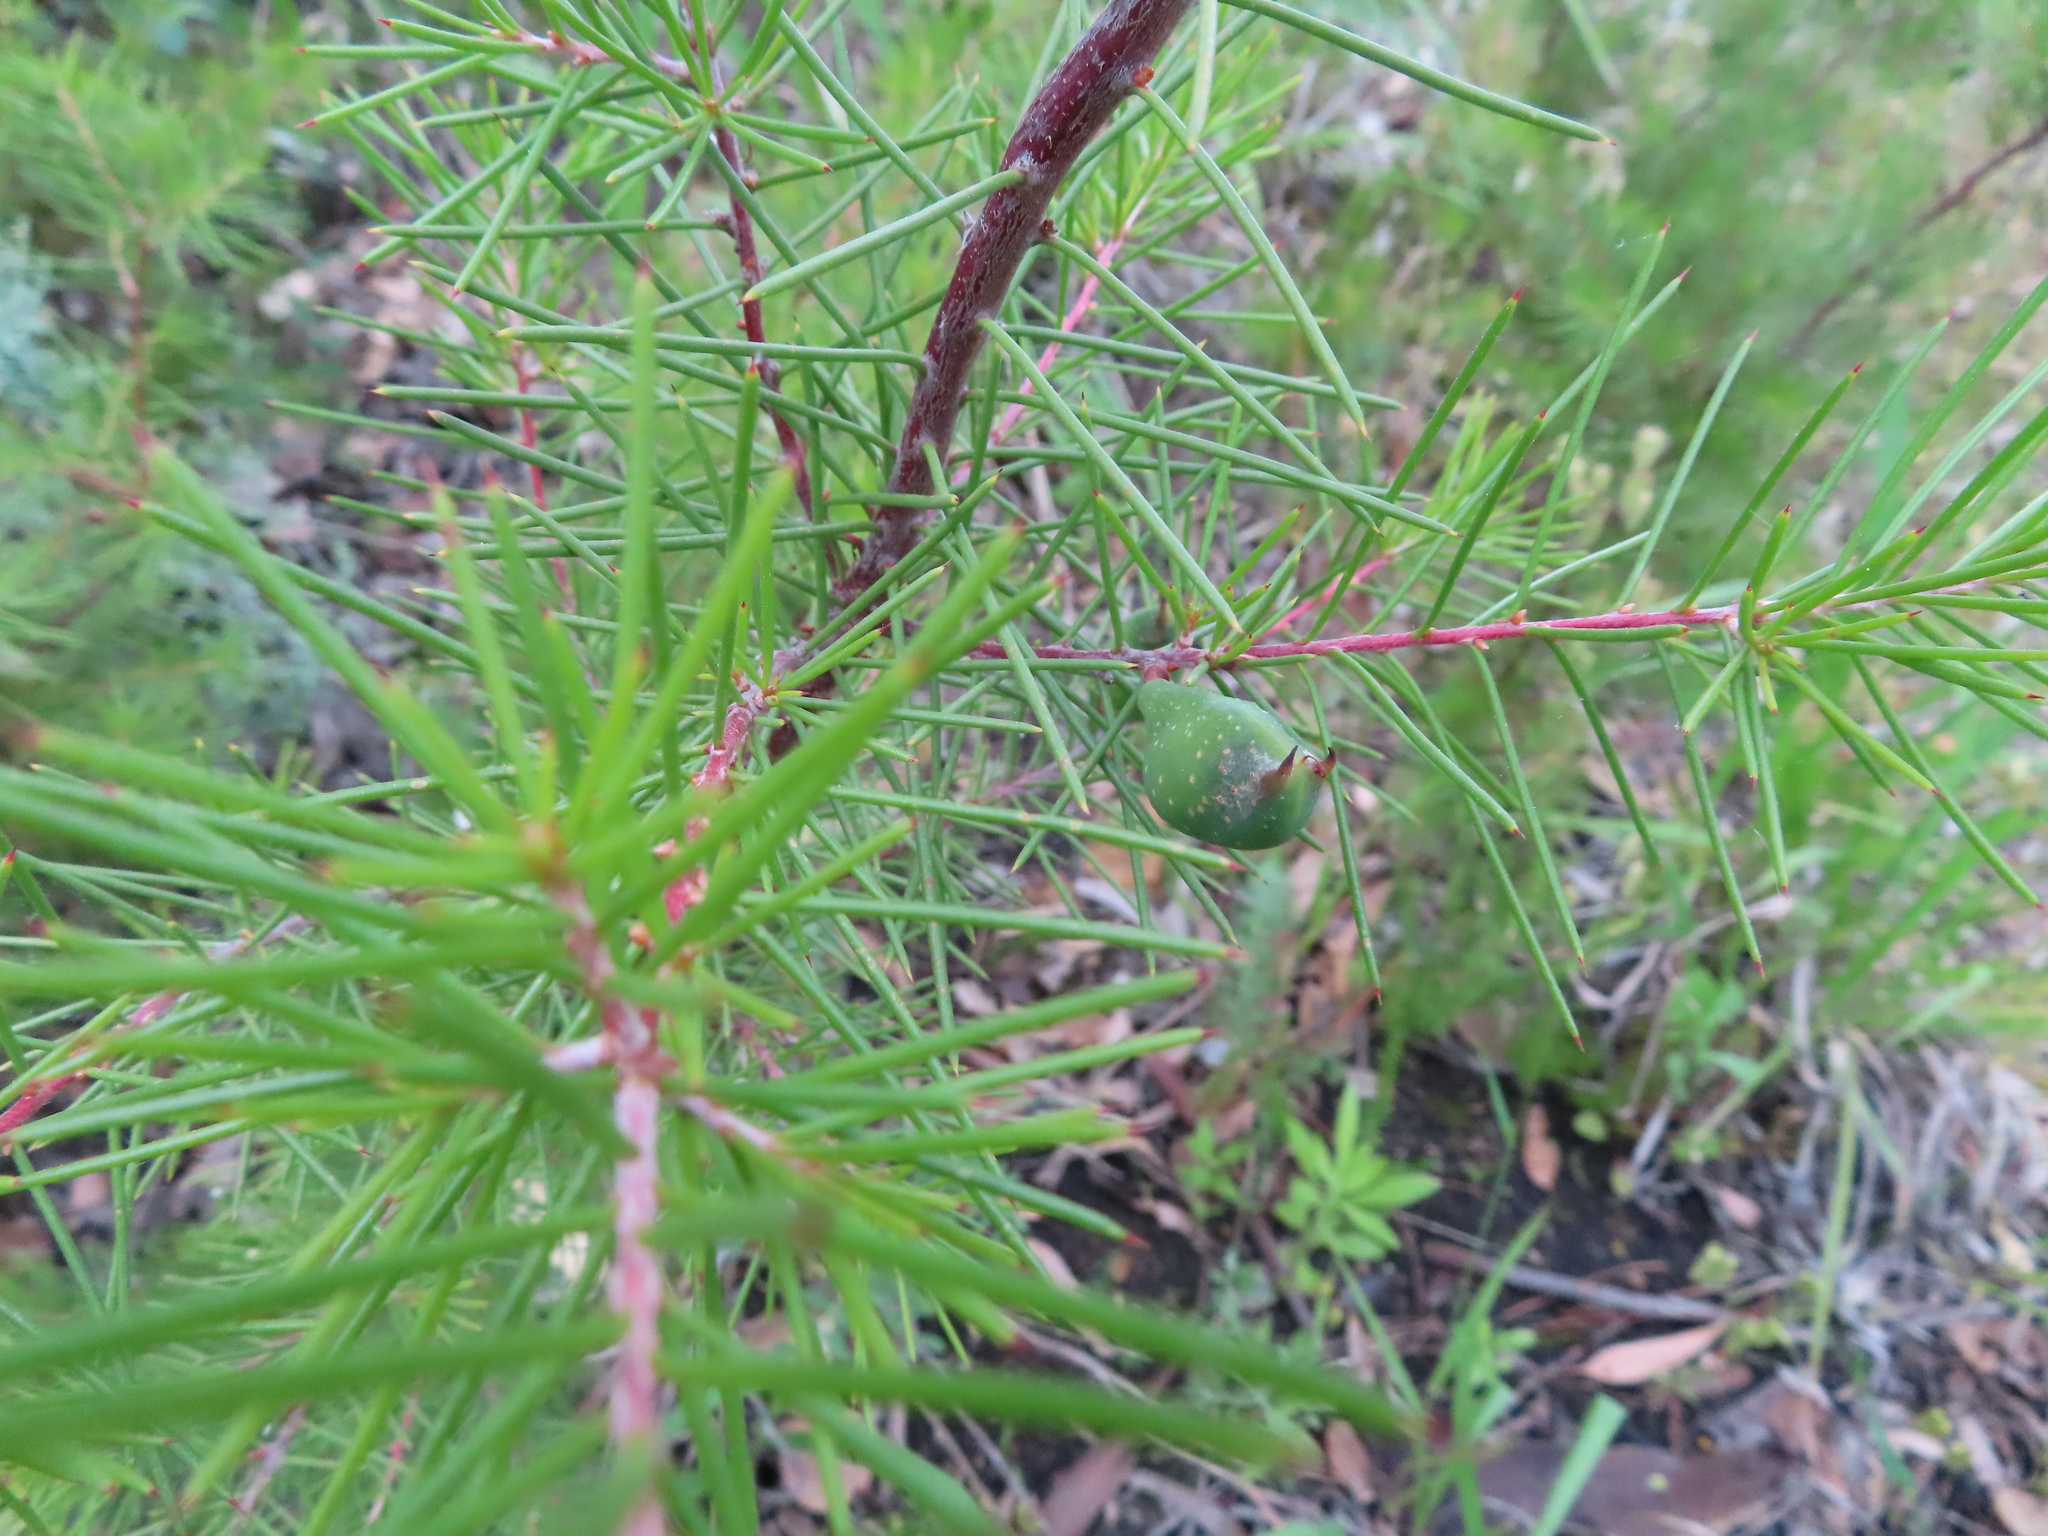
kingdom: Plantae
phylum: Tracheophyta
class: Magnoliopsida
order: Proteales
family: Proteaceae
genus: Hakea
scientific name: Hakea sericea
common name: Needle bush
